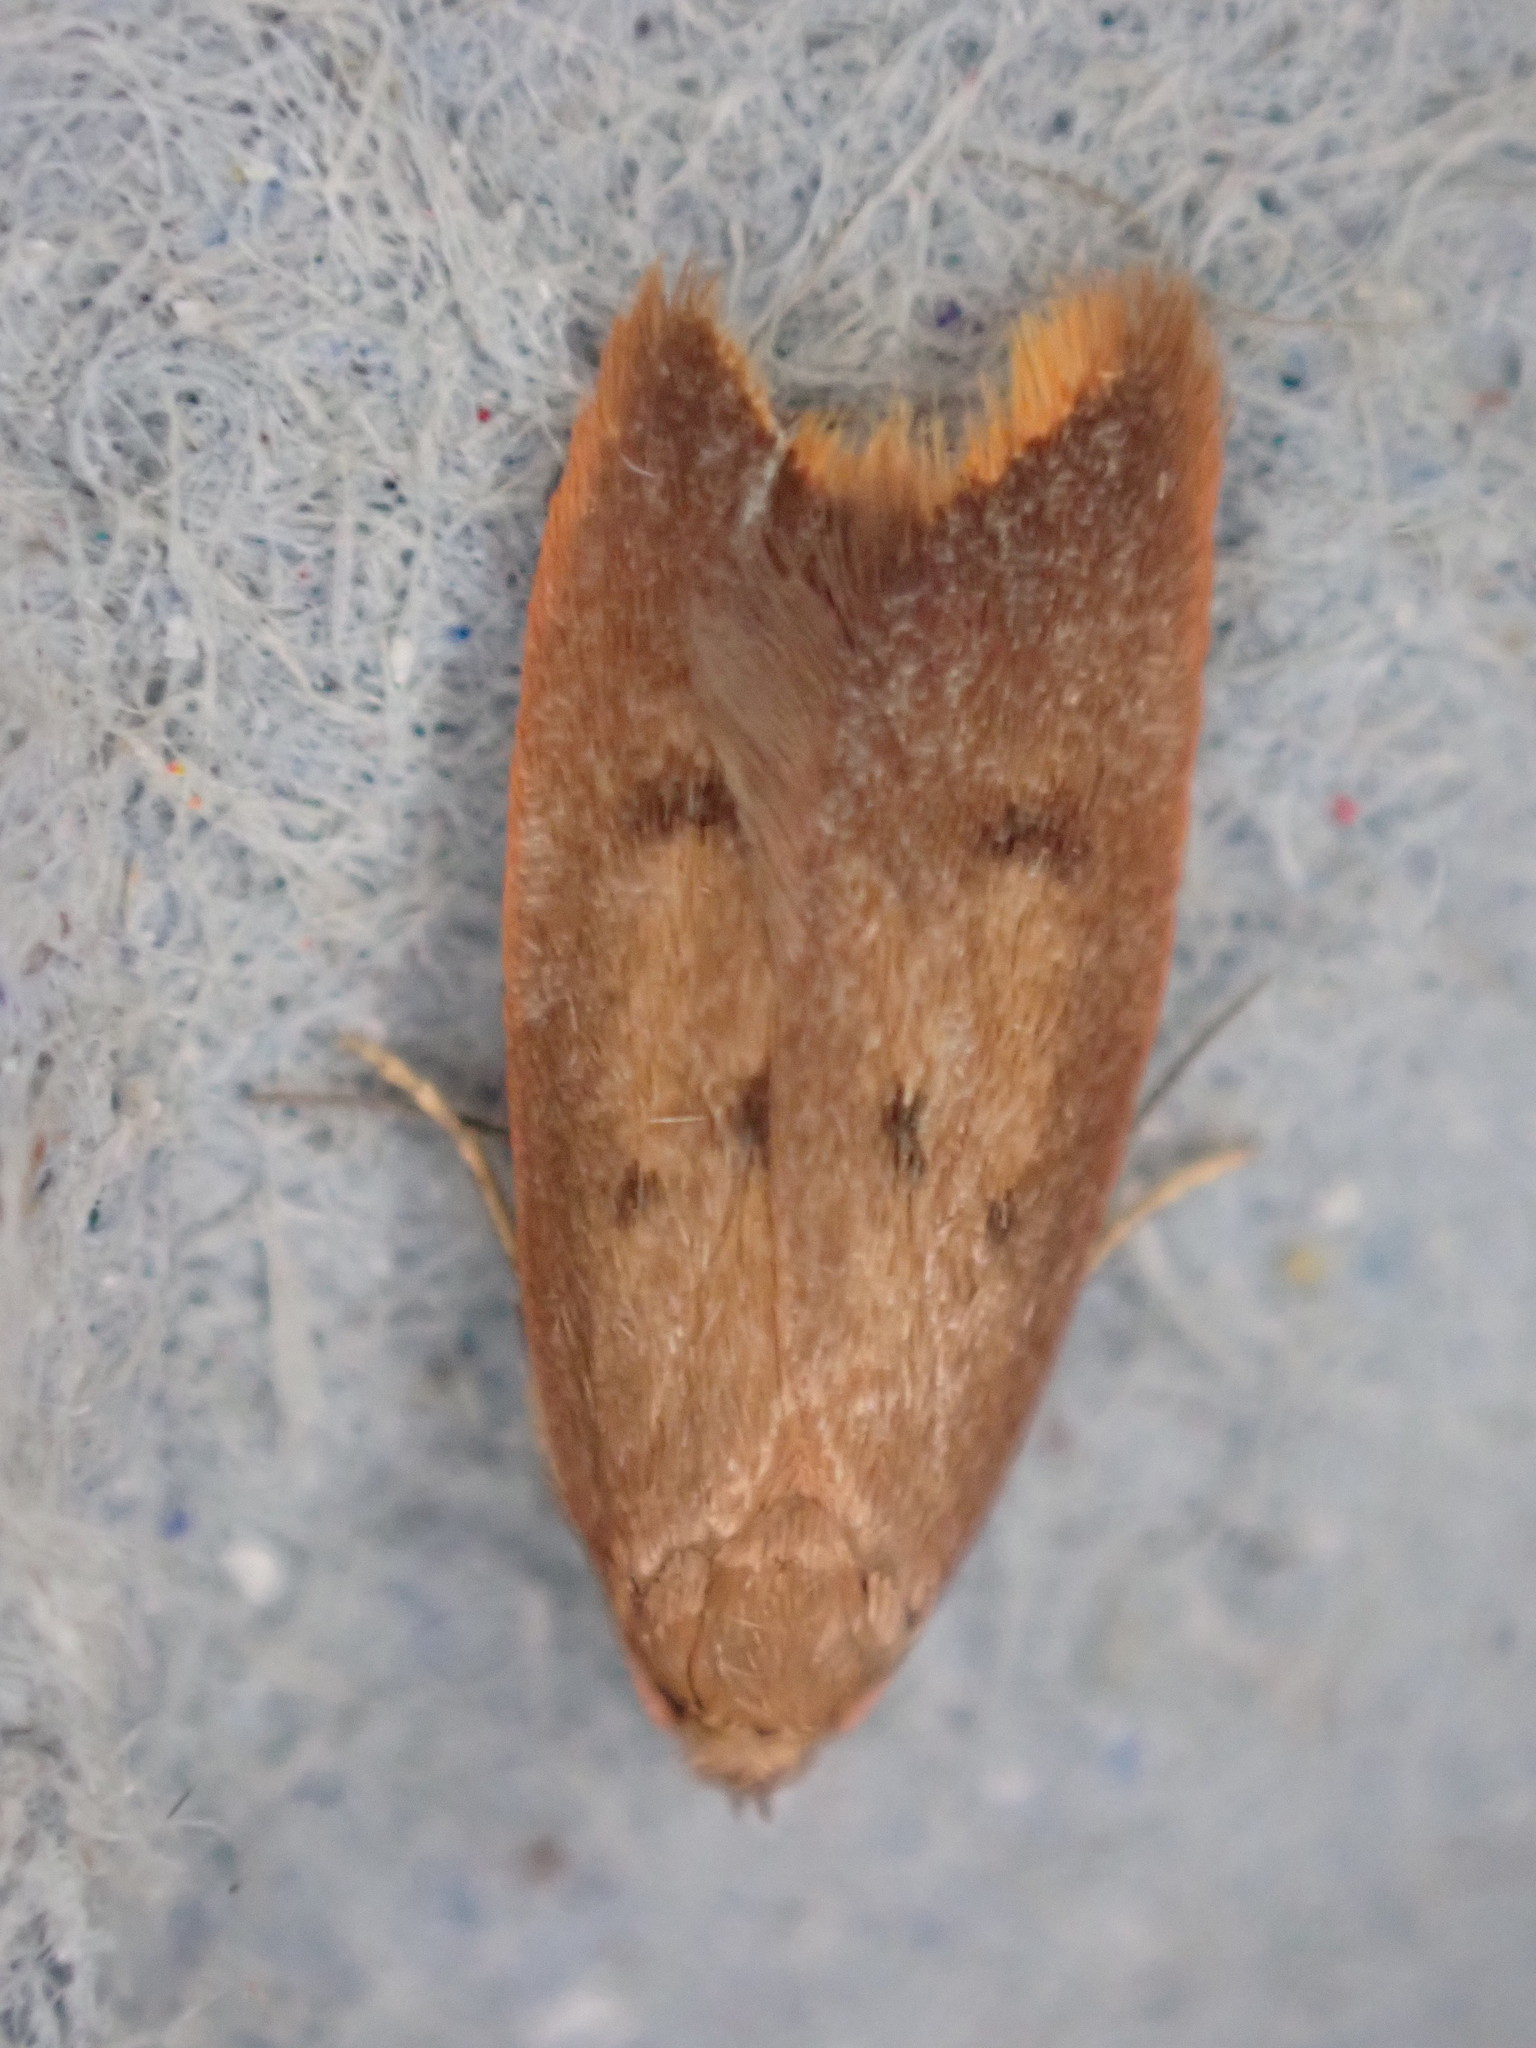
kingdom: Animalia
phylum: Arthropoda
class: Insecta
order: Lepidoptera
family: Oecophoridae
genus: Tachystola
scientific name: Tachystola acroxantha
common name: Ruddy streak
